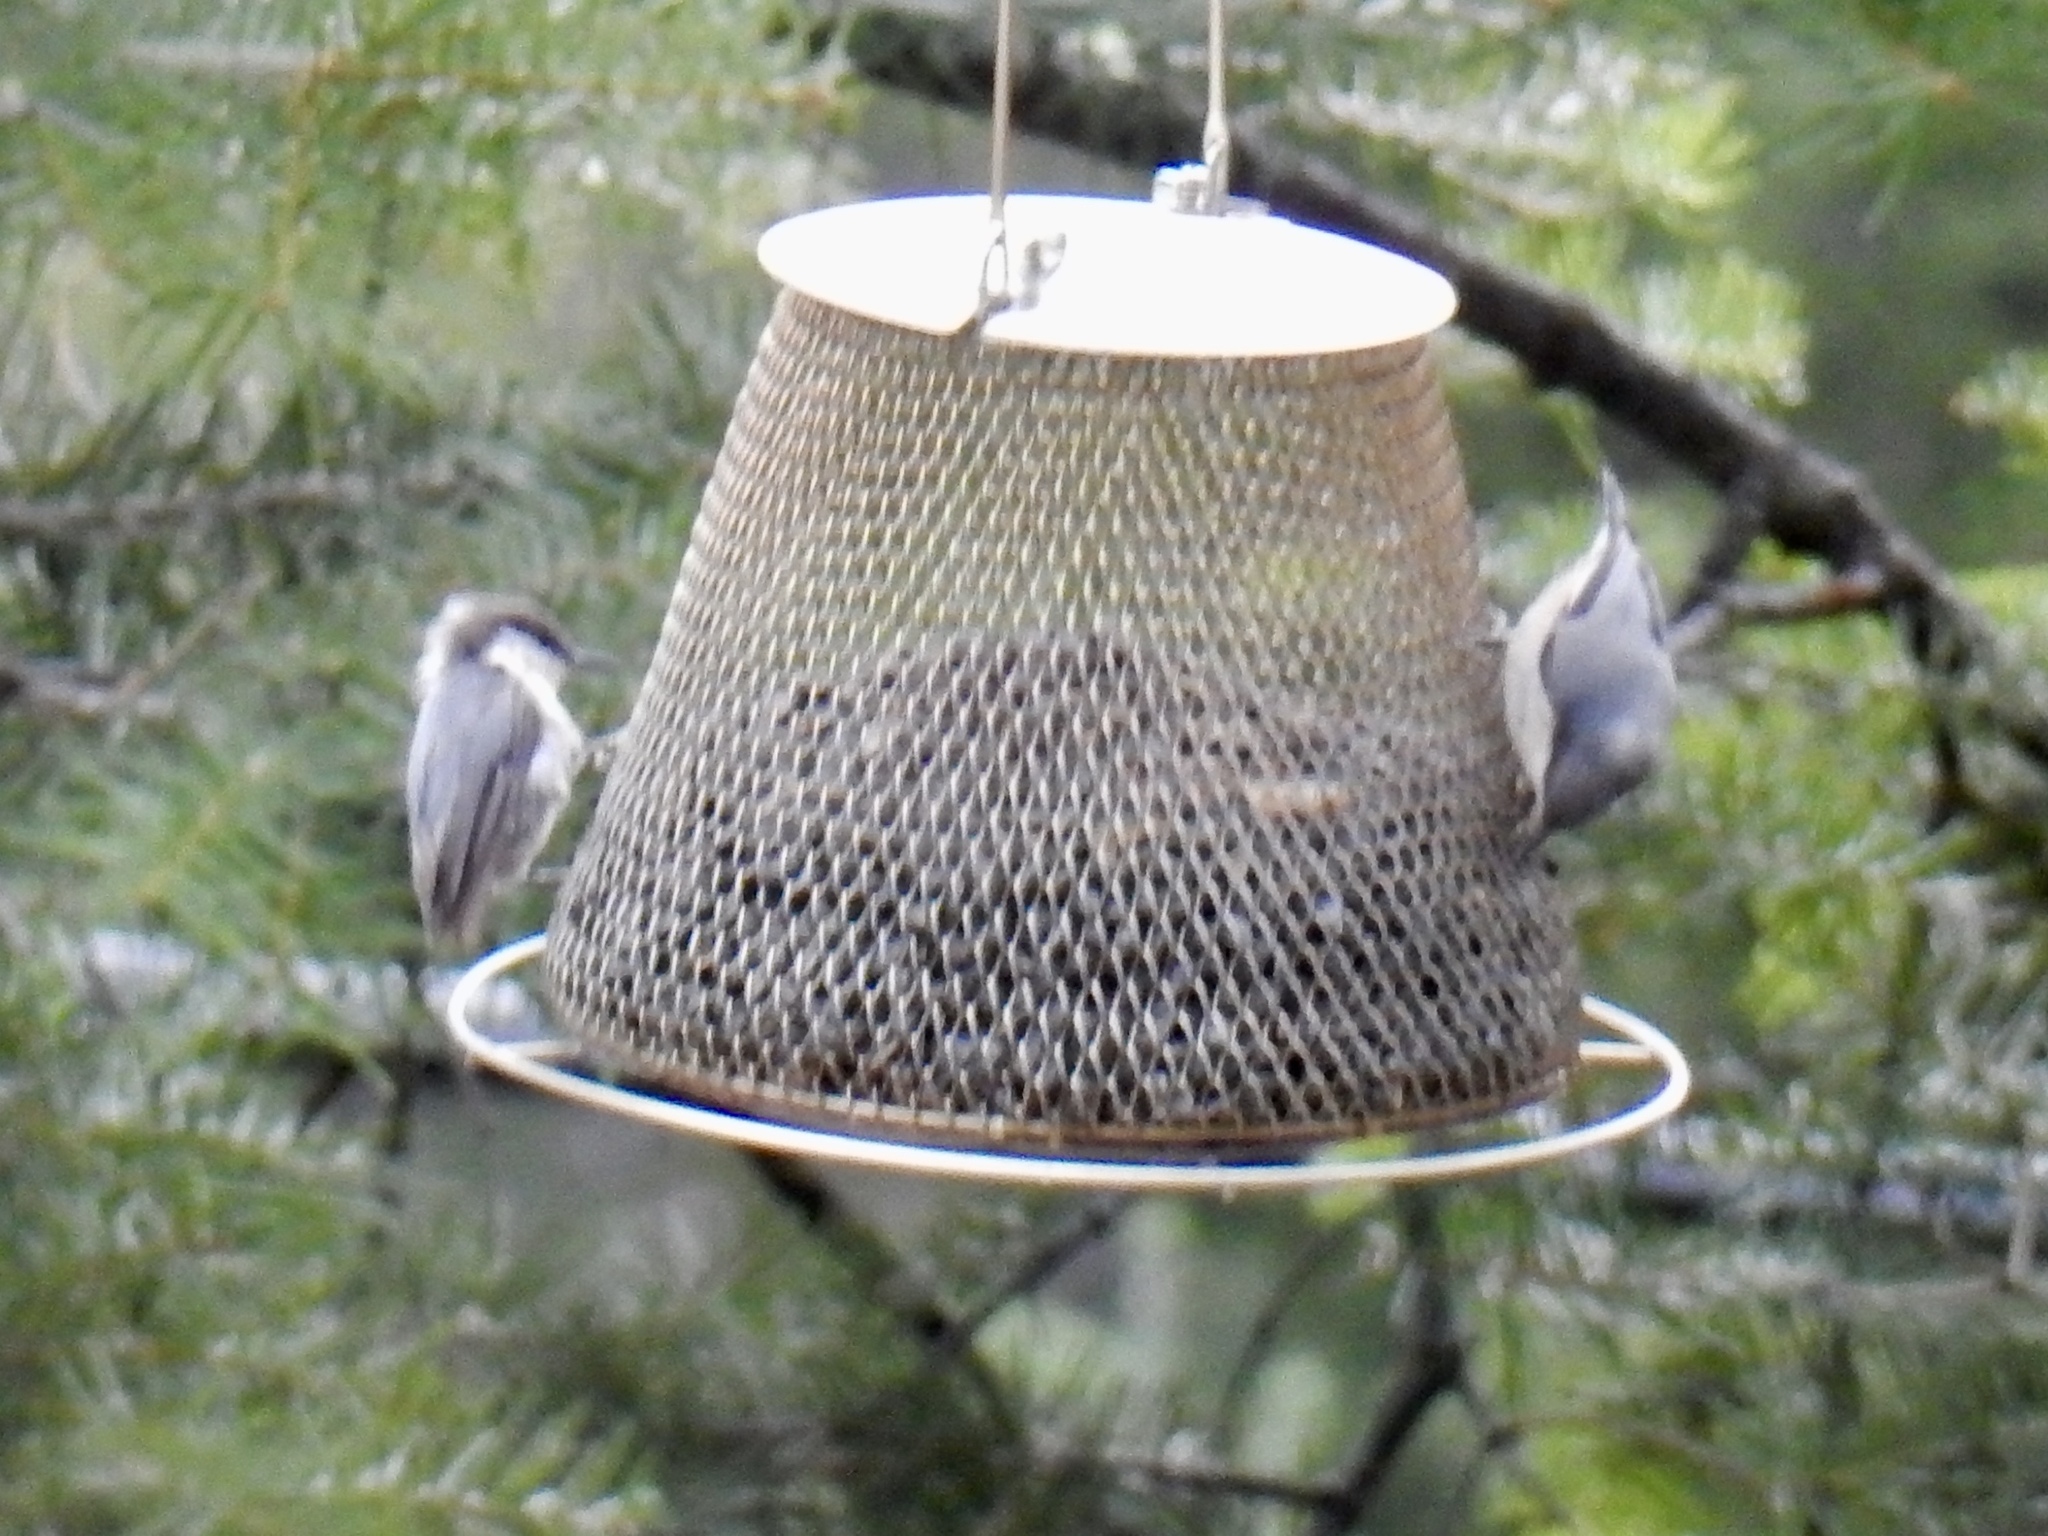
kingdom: Animalia
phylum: Chordata
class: Aves
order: Passeriformes
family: Sittidae
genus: Sitta
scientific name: Sitta pygmaea
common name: Pygmy nuthatch
